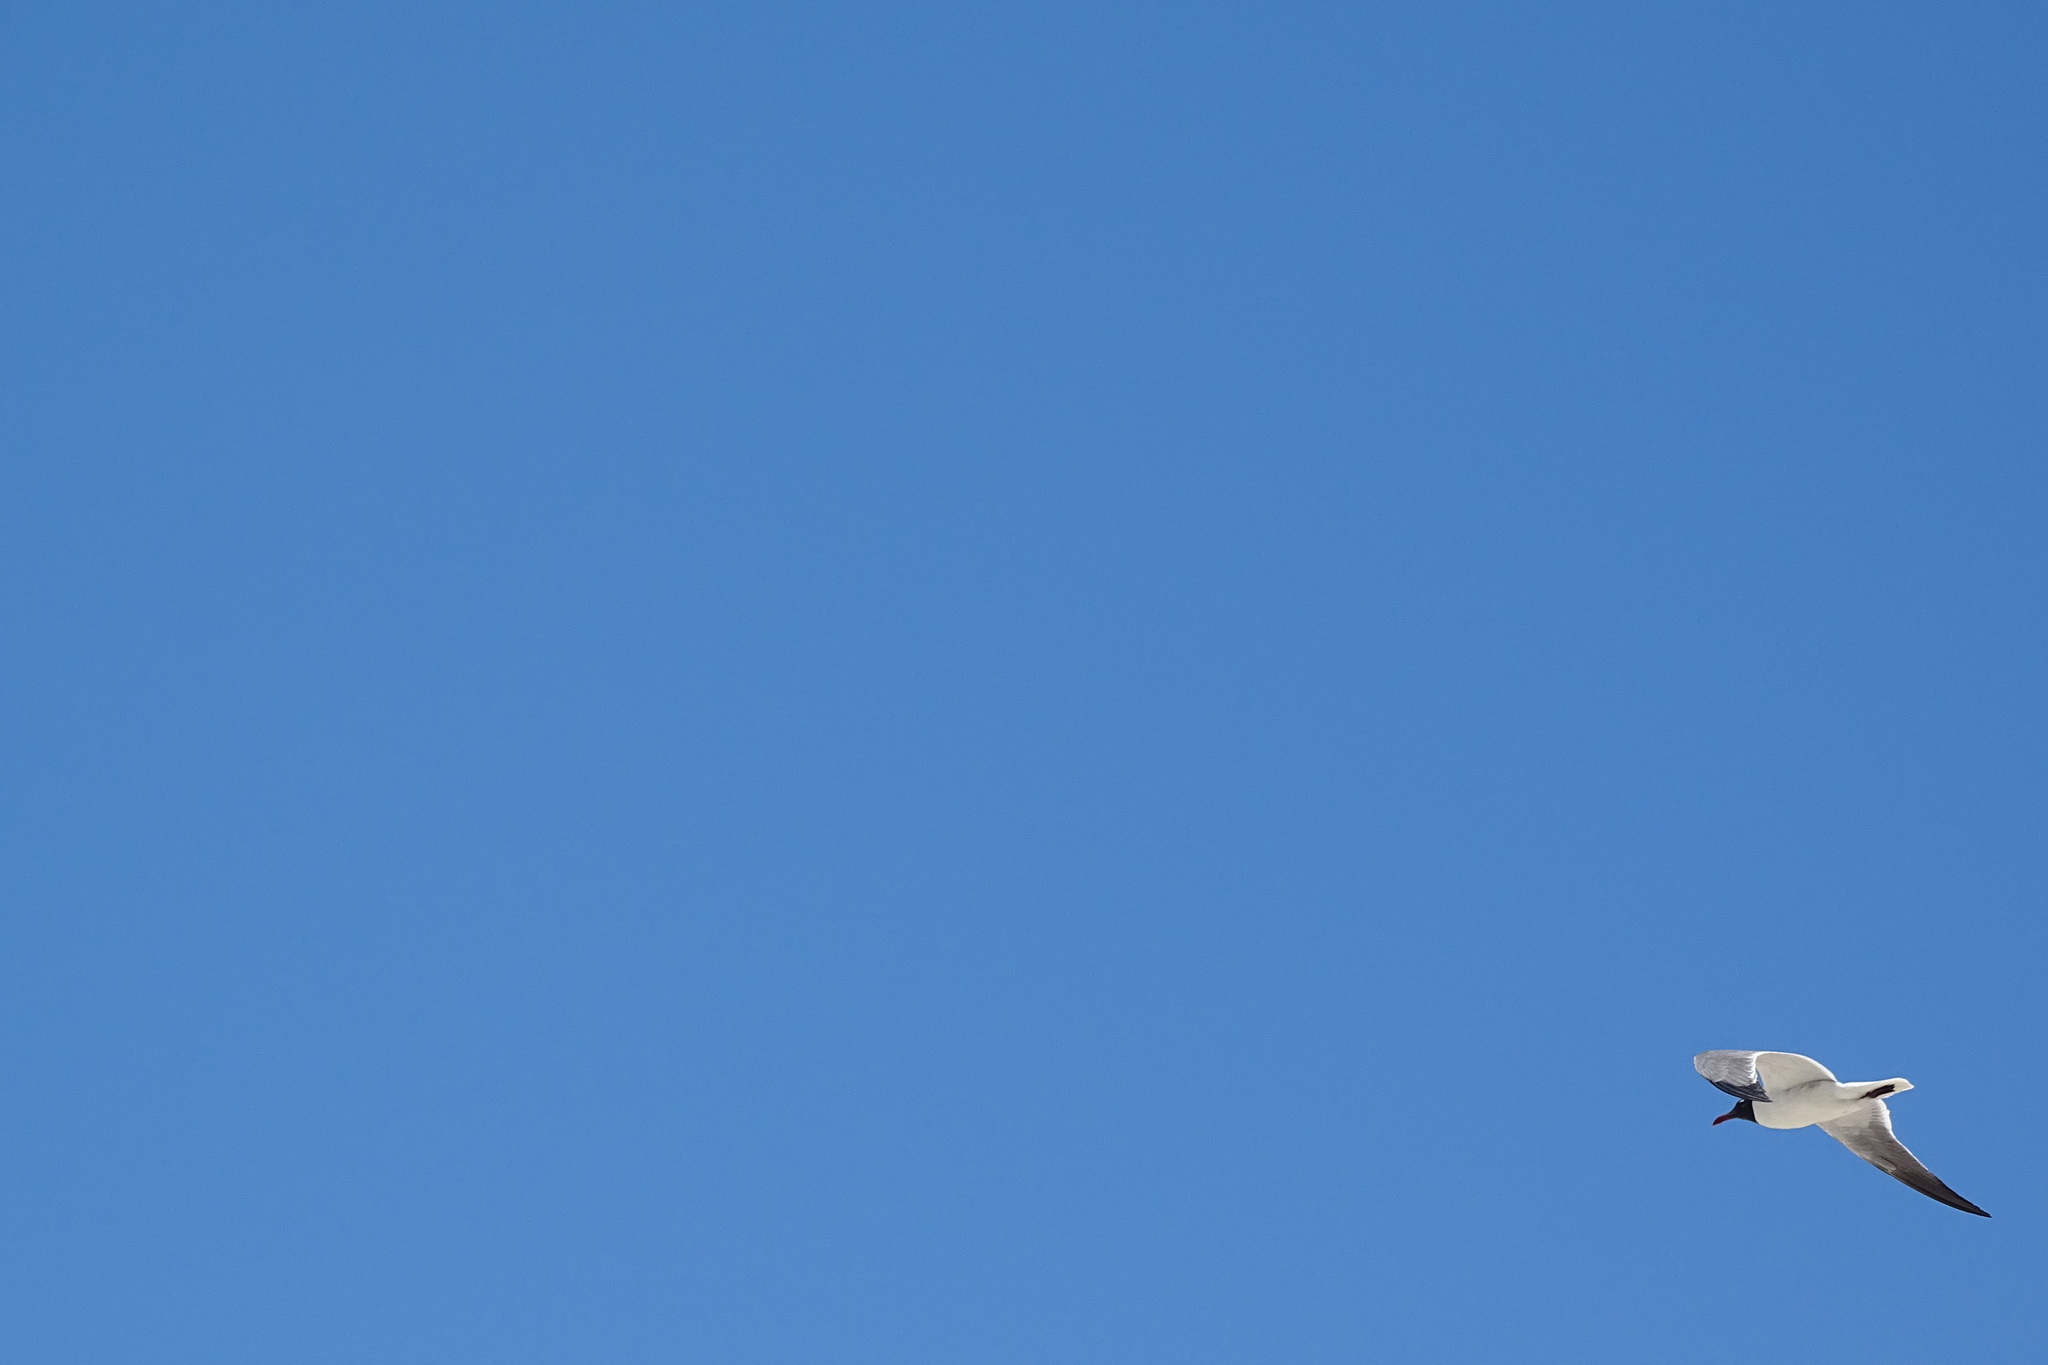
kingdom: Animalia
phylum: Chordata
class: Aves
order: Charadriiformes
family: Laridae
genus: Leucophaeus
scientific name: Leucophaeus atricilla
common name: Laughing gull
